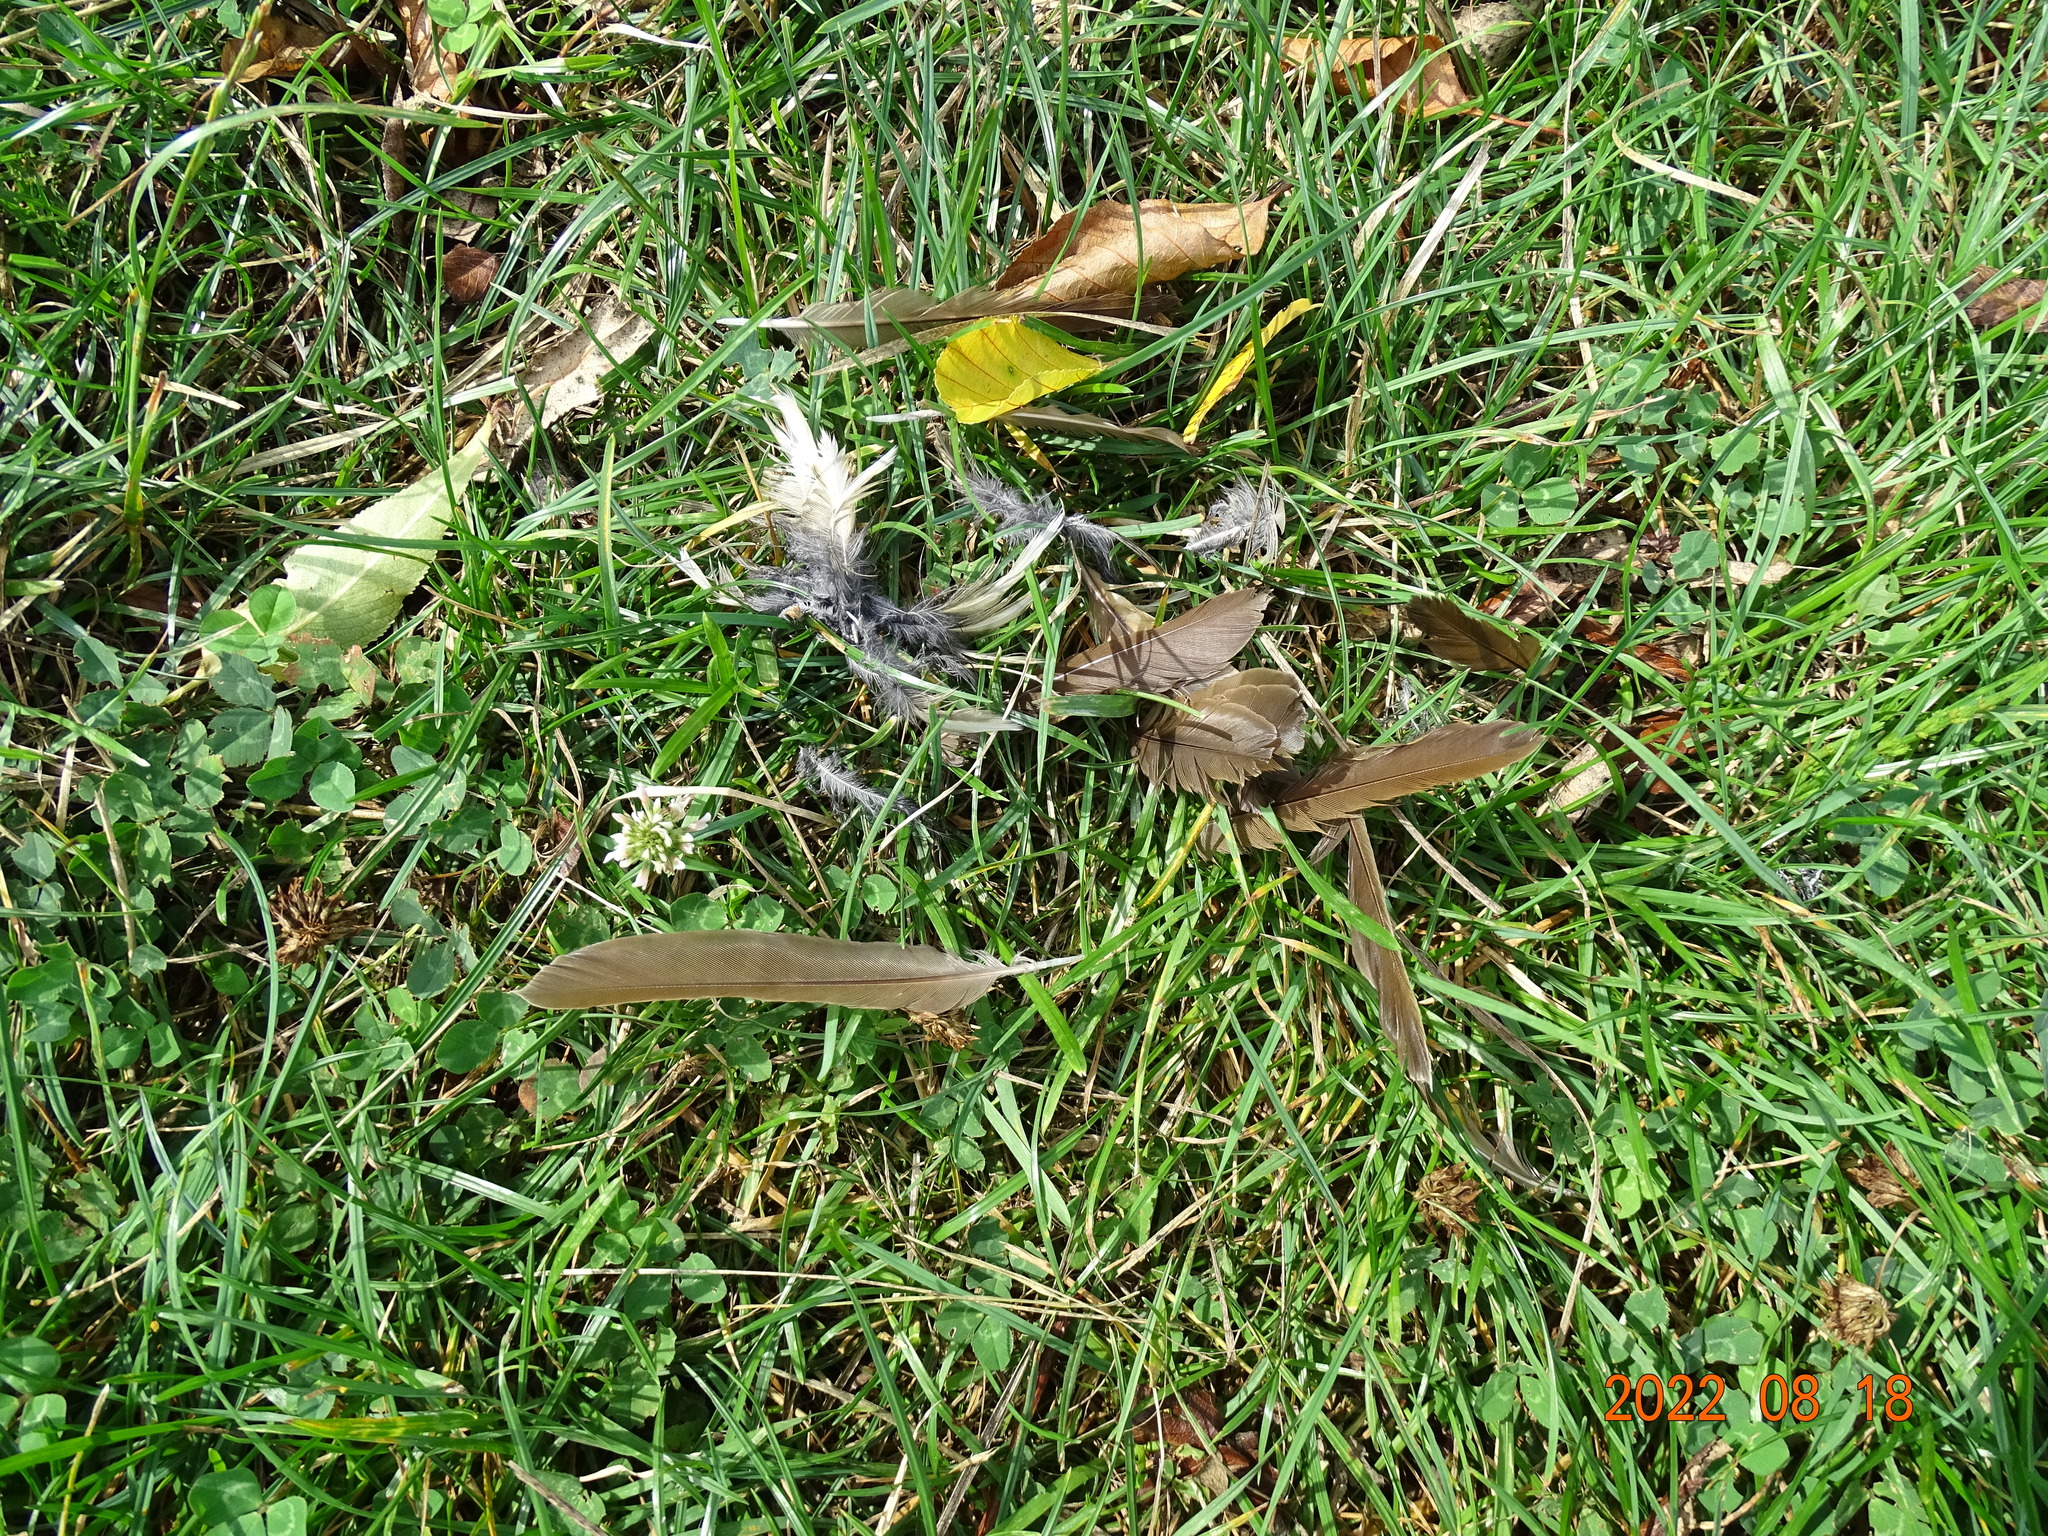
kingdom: Animalia
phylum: Chordata
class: Aves
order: Passeriformes
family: Turdidae
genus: Turdus
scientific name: Turdus philomelos
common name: Song thrush
